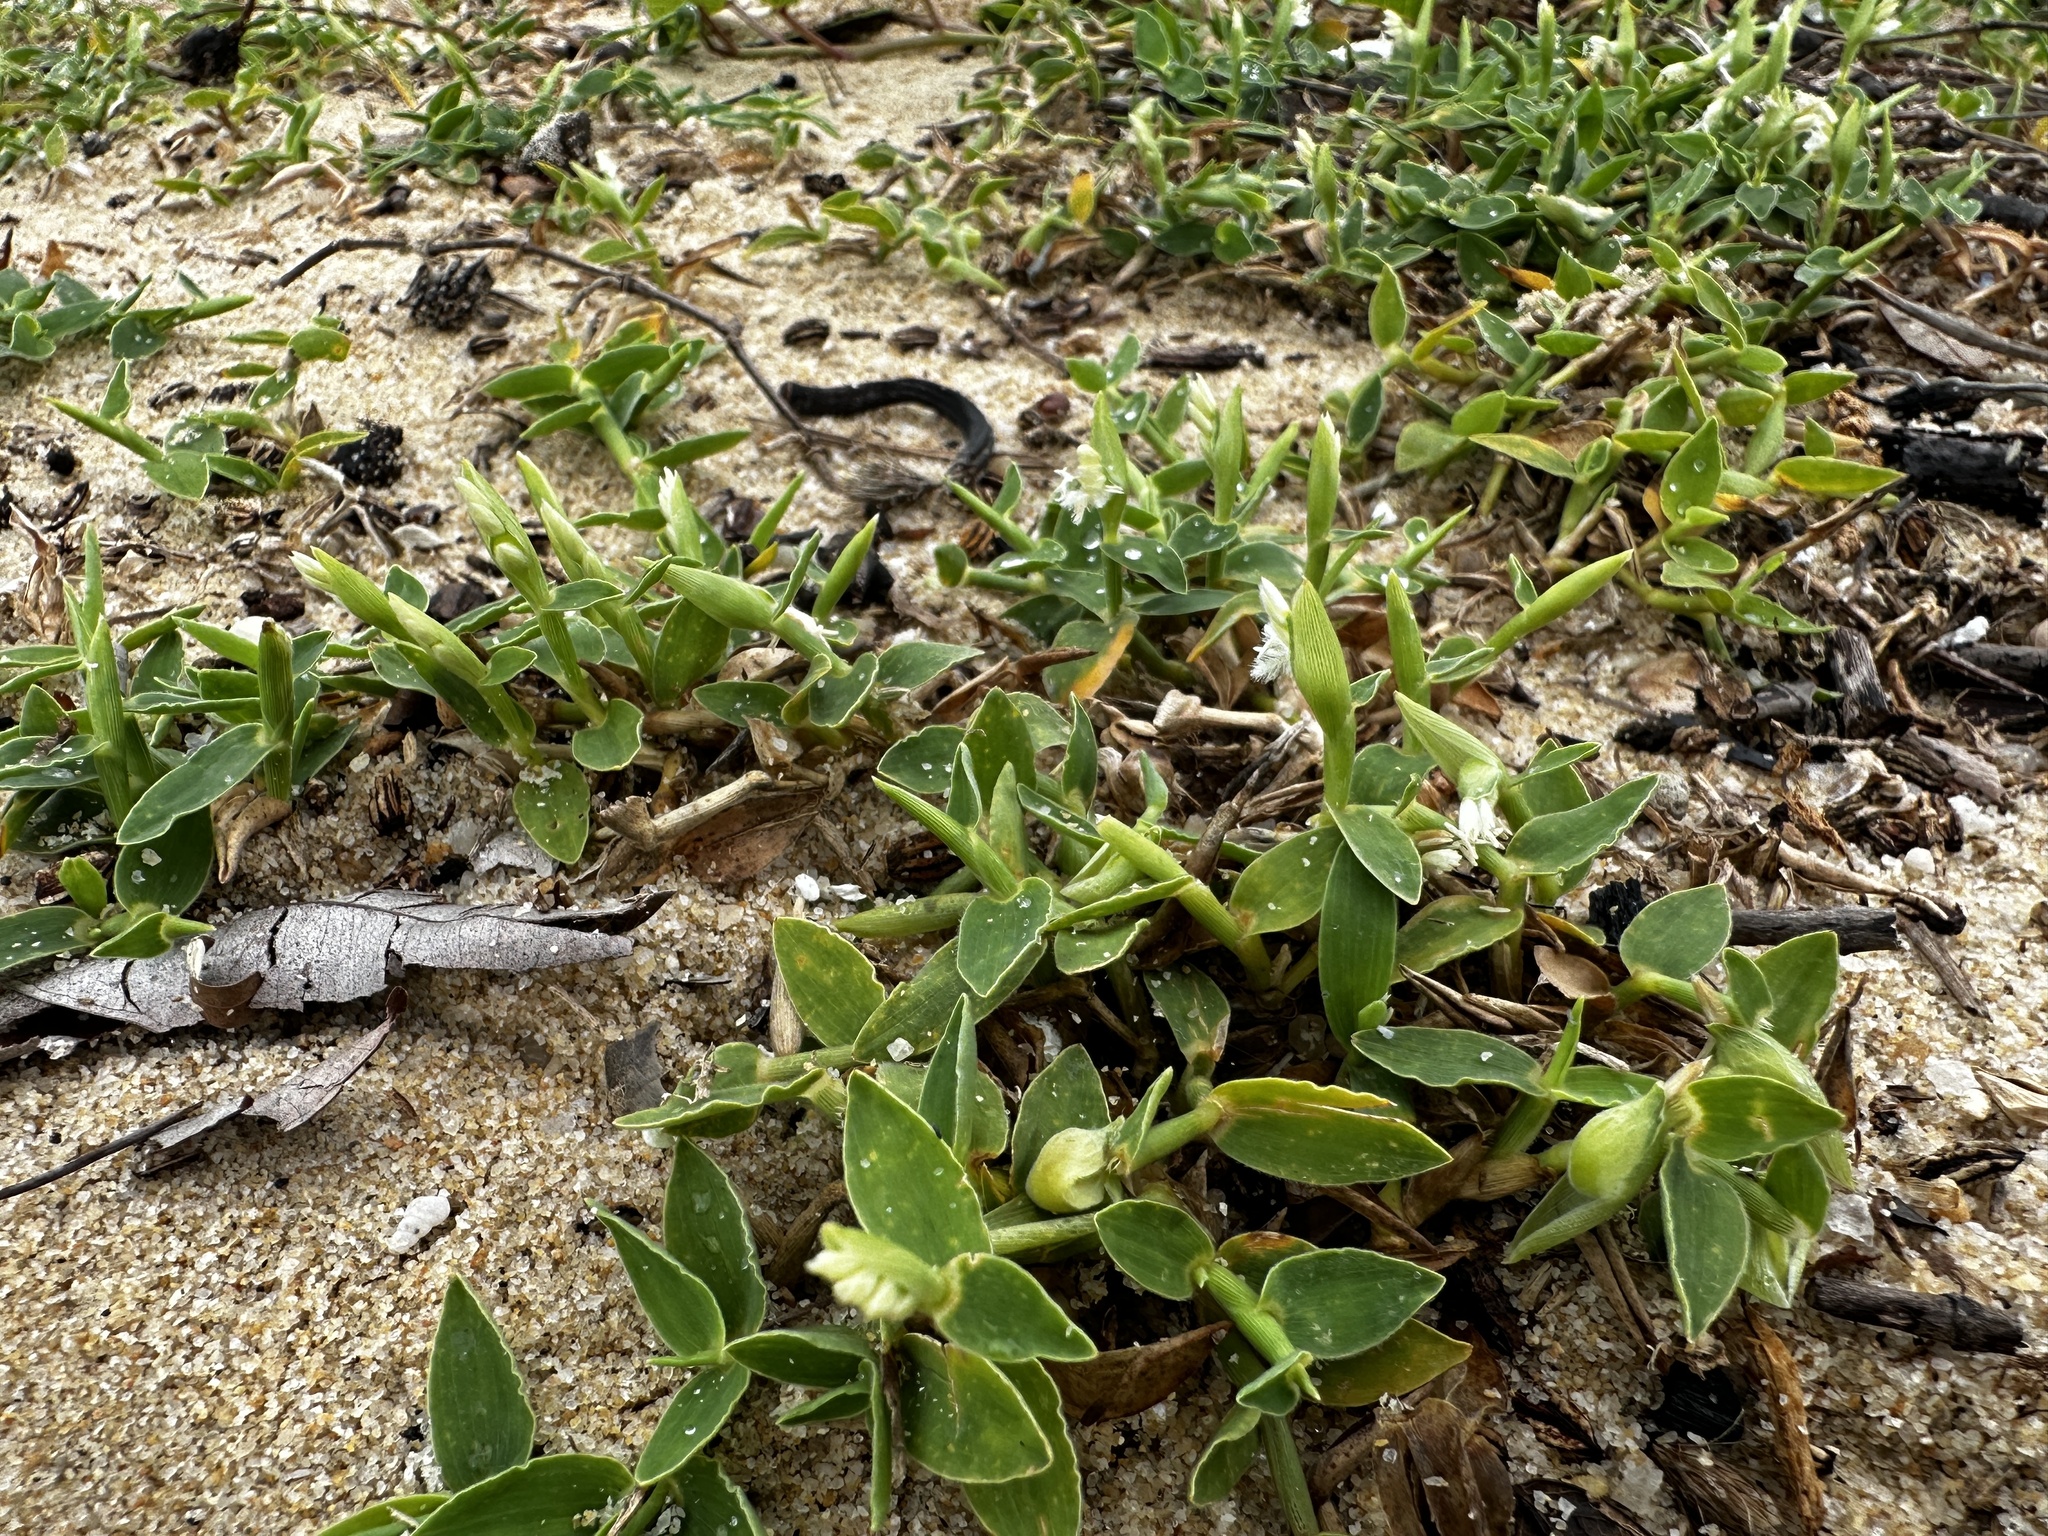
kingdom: Plantae
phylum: Tracheophyta
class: Liliopsida
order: Poales
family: Poaceae
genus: Thuarea
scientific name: Thuarea involuta
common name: Tropical beach grass
